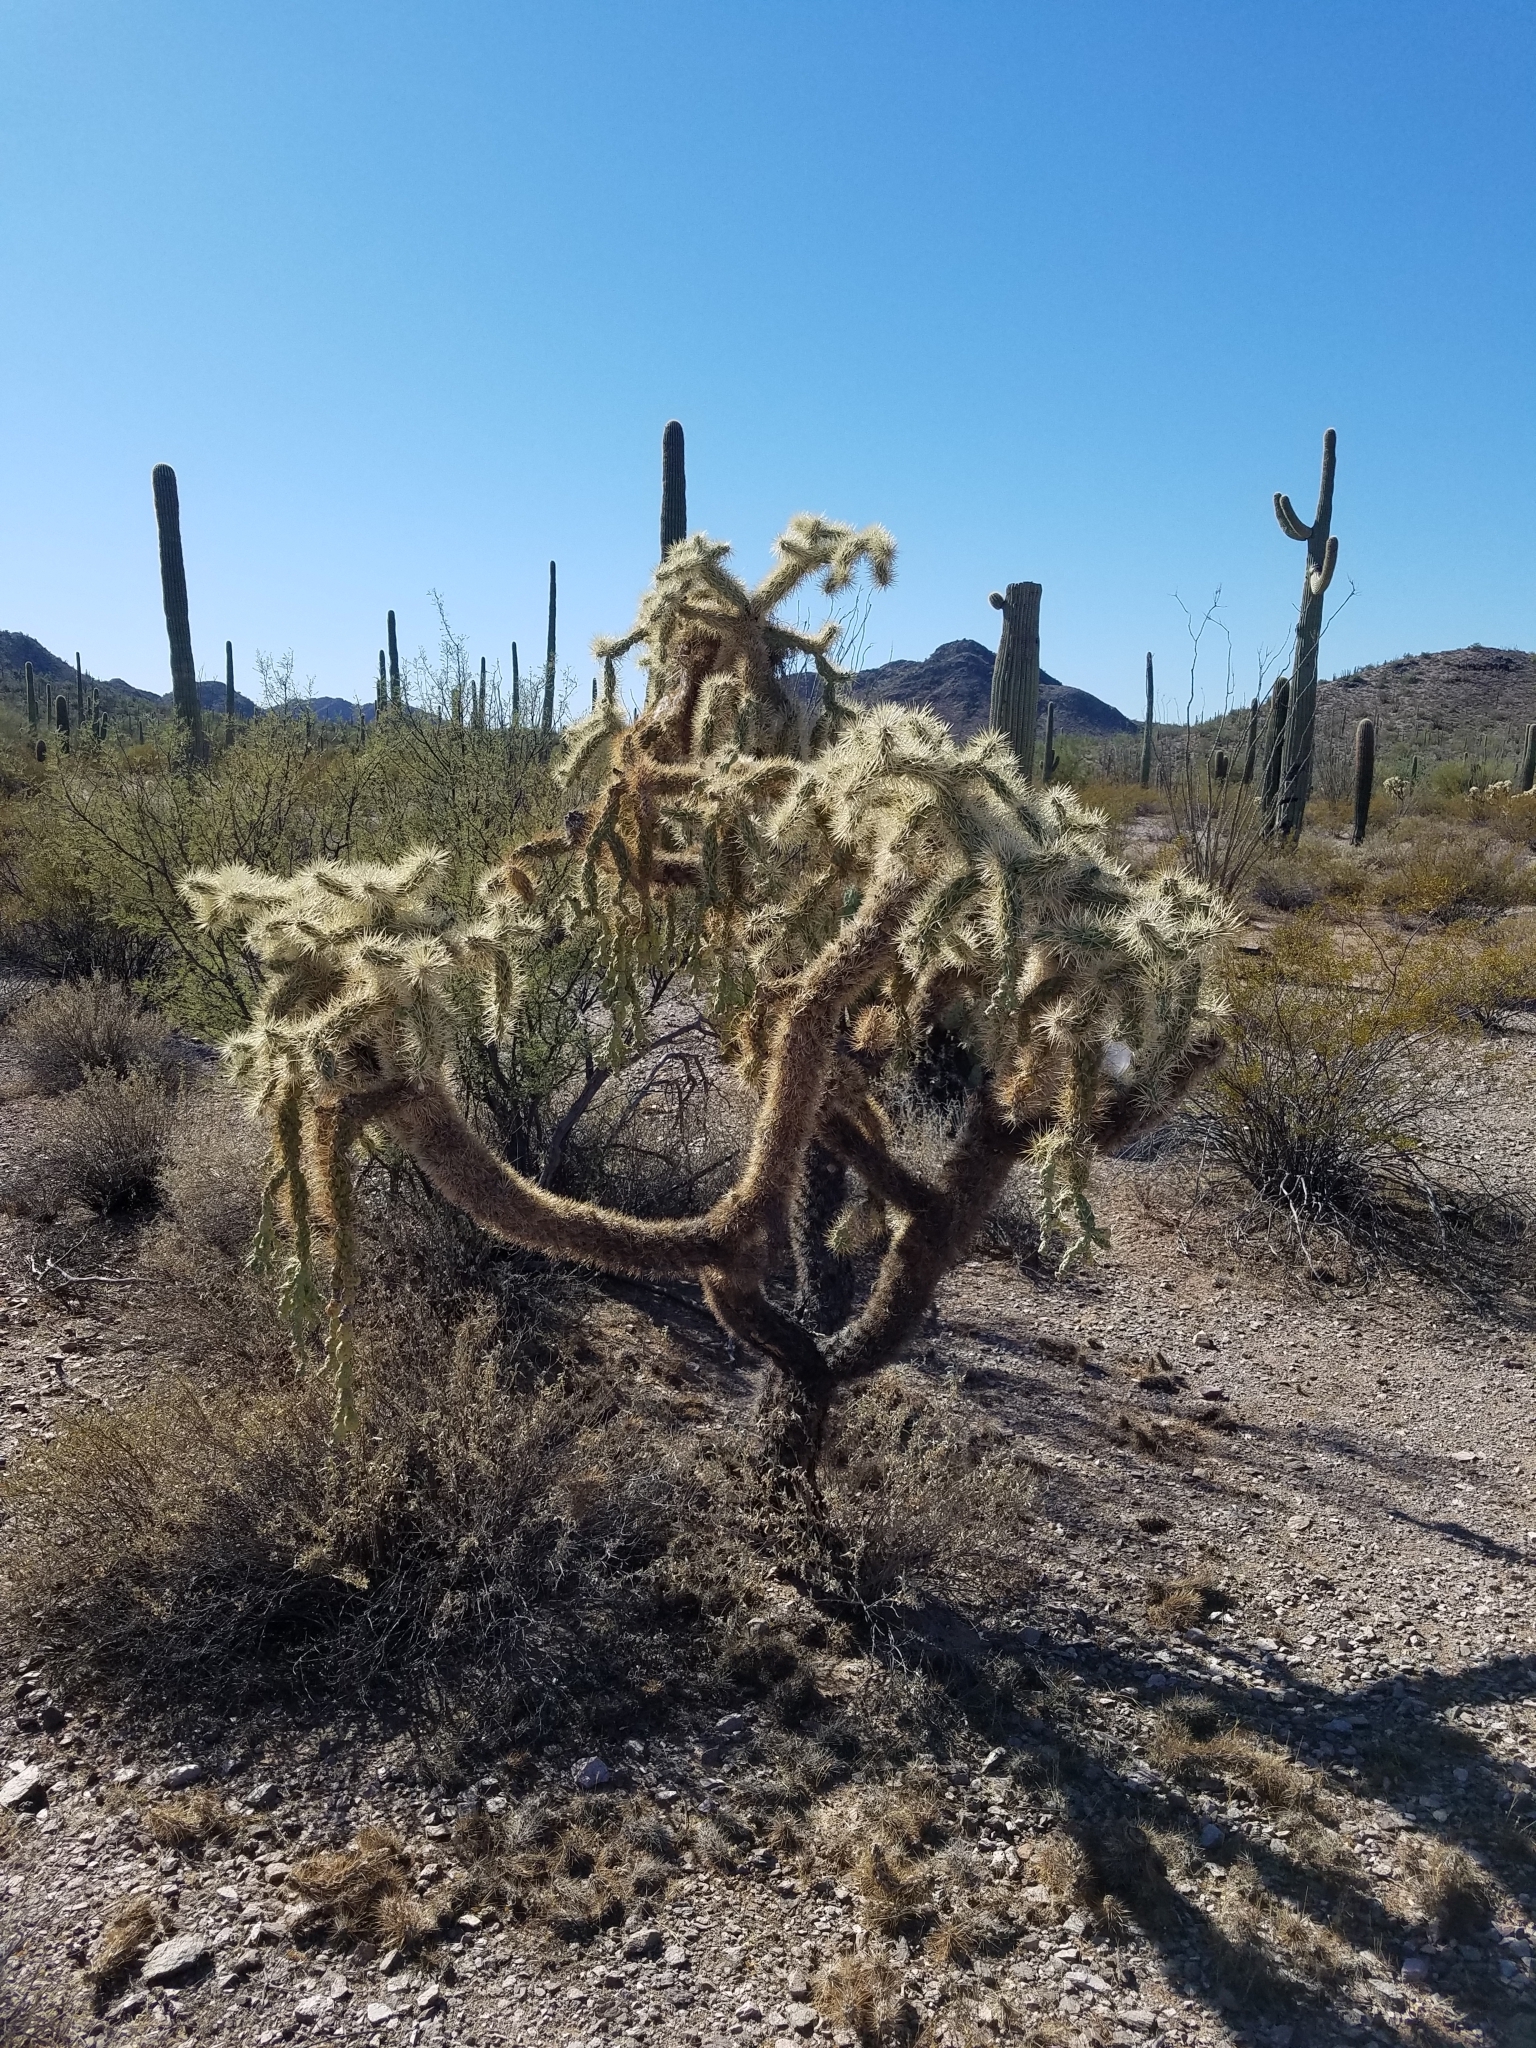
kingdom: Plantae
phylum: Tracheophyta
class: Magnoliopsida
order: Caryophyllales
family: Cactaceae
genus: Cylindropuntia
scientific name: Cylindropuntia fulgida
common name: Jumping cholla
